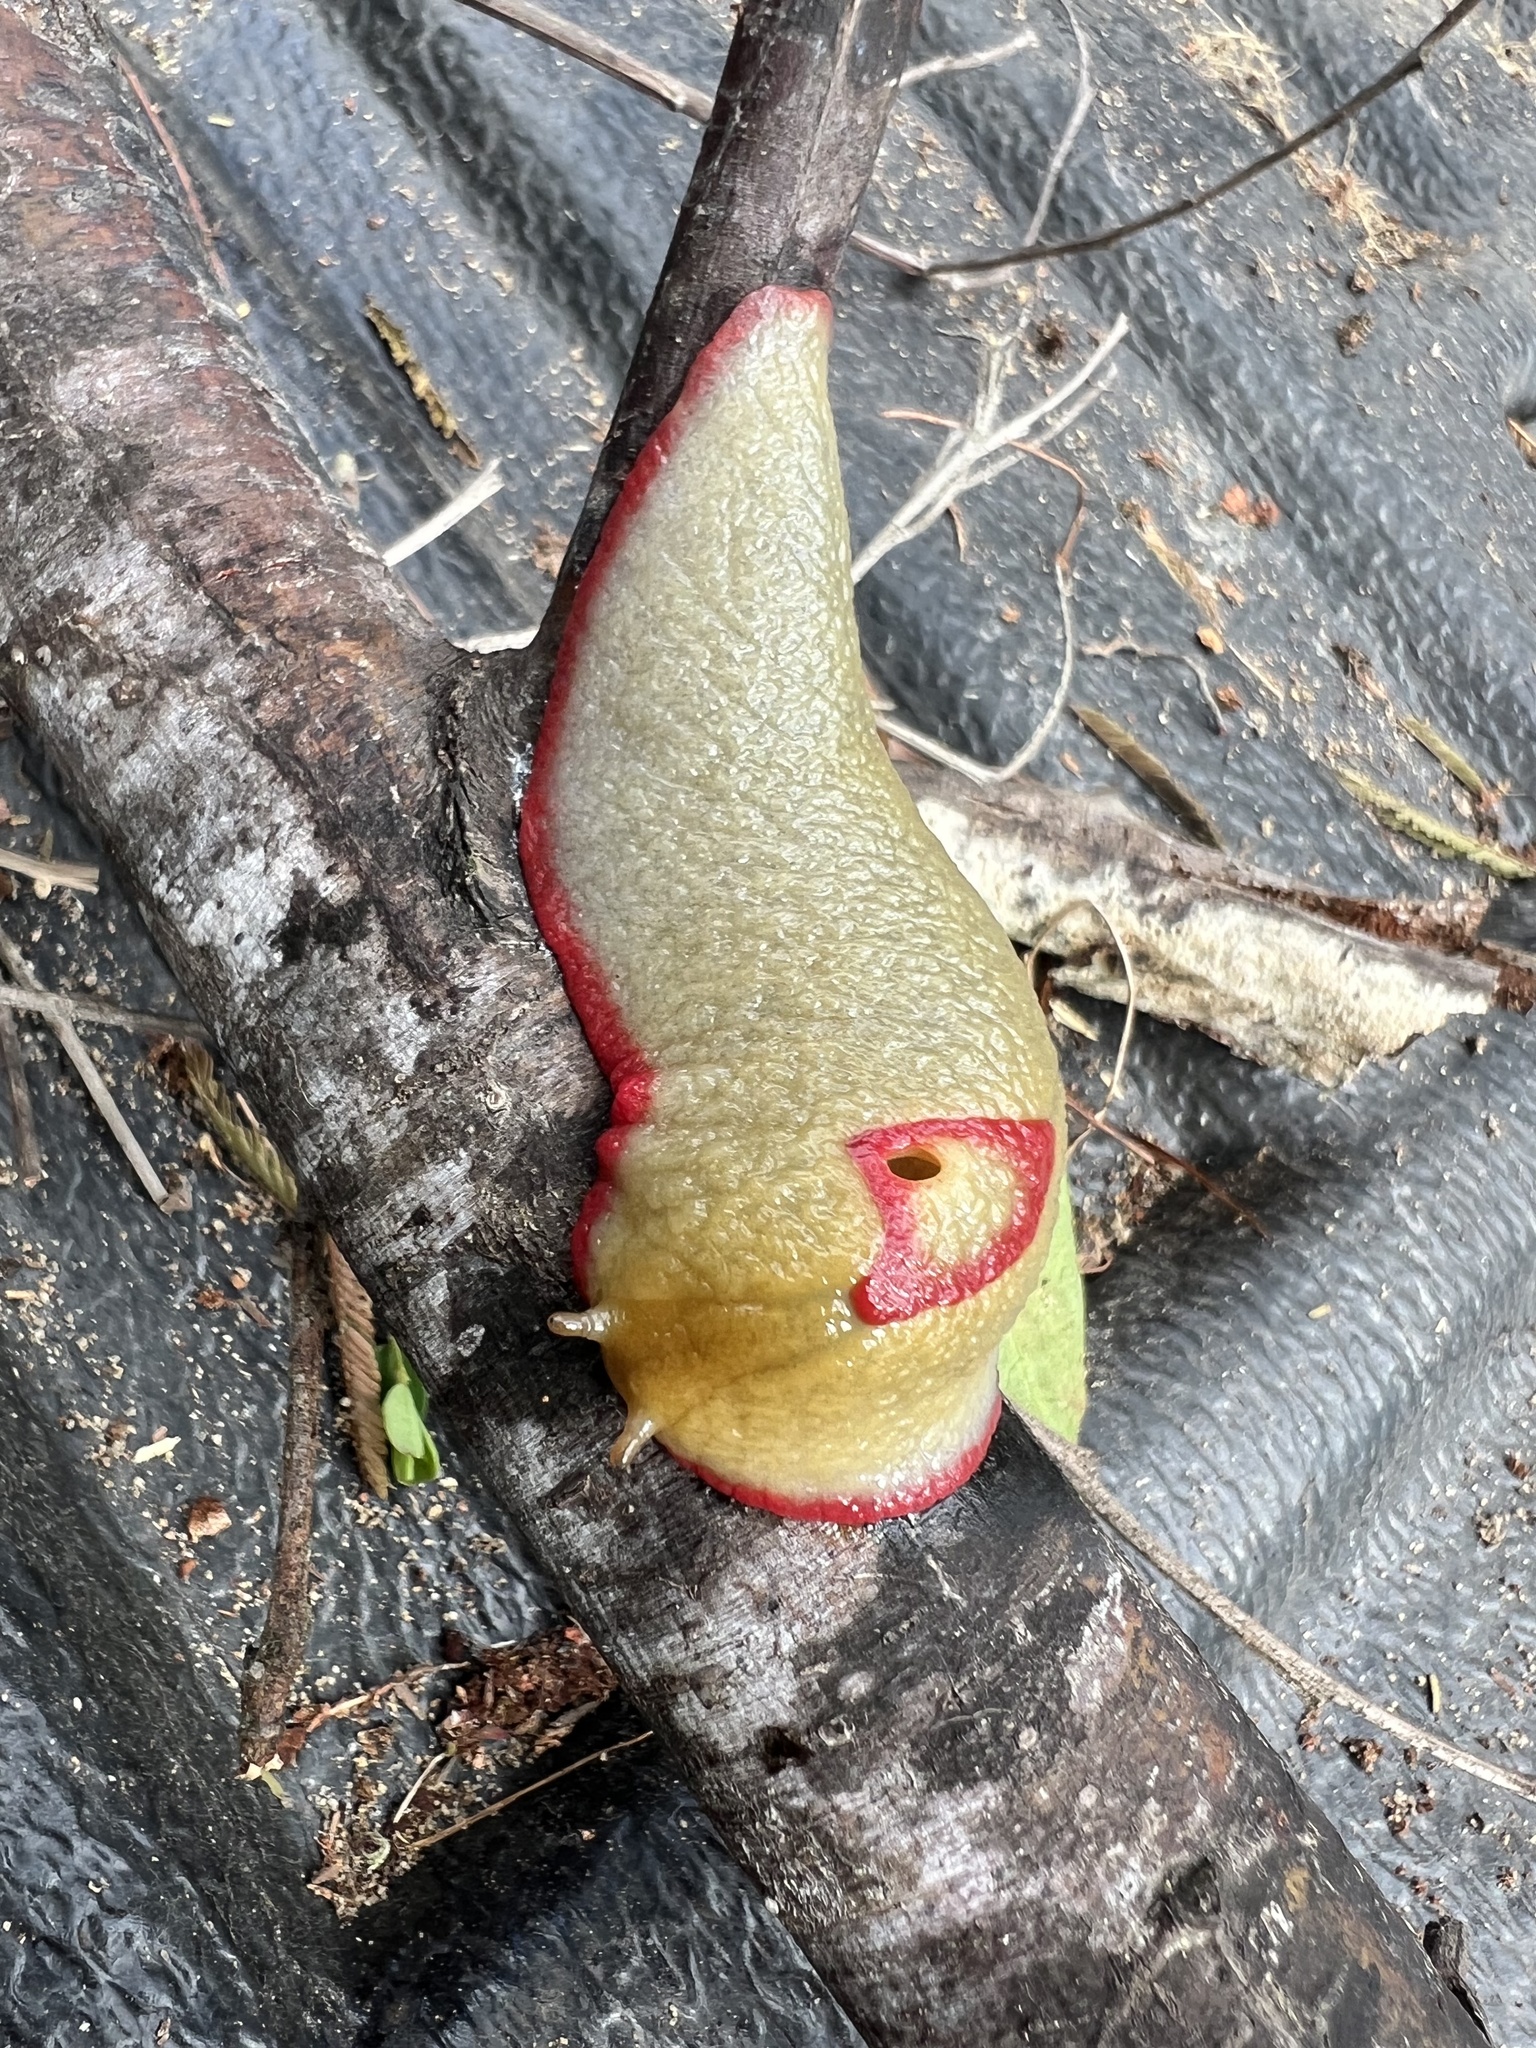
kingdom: Animalia
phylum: Mollusca
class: Gastropoda
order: Stylommatophora
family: Athoracophoridae
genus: Triboniophorus
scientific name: Triboniophorus graeffei
